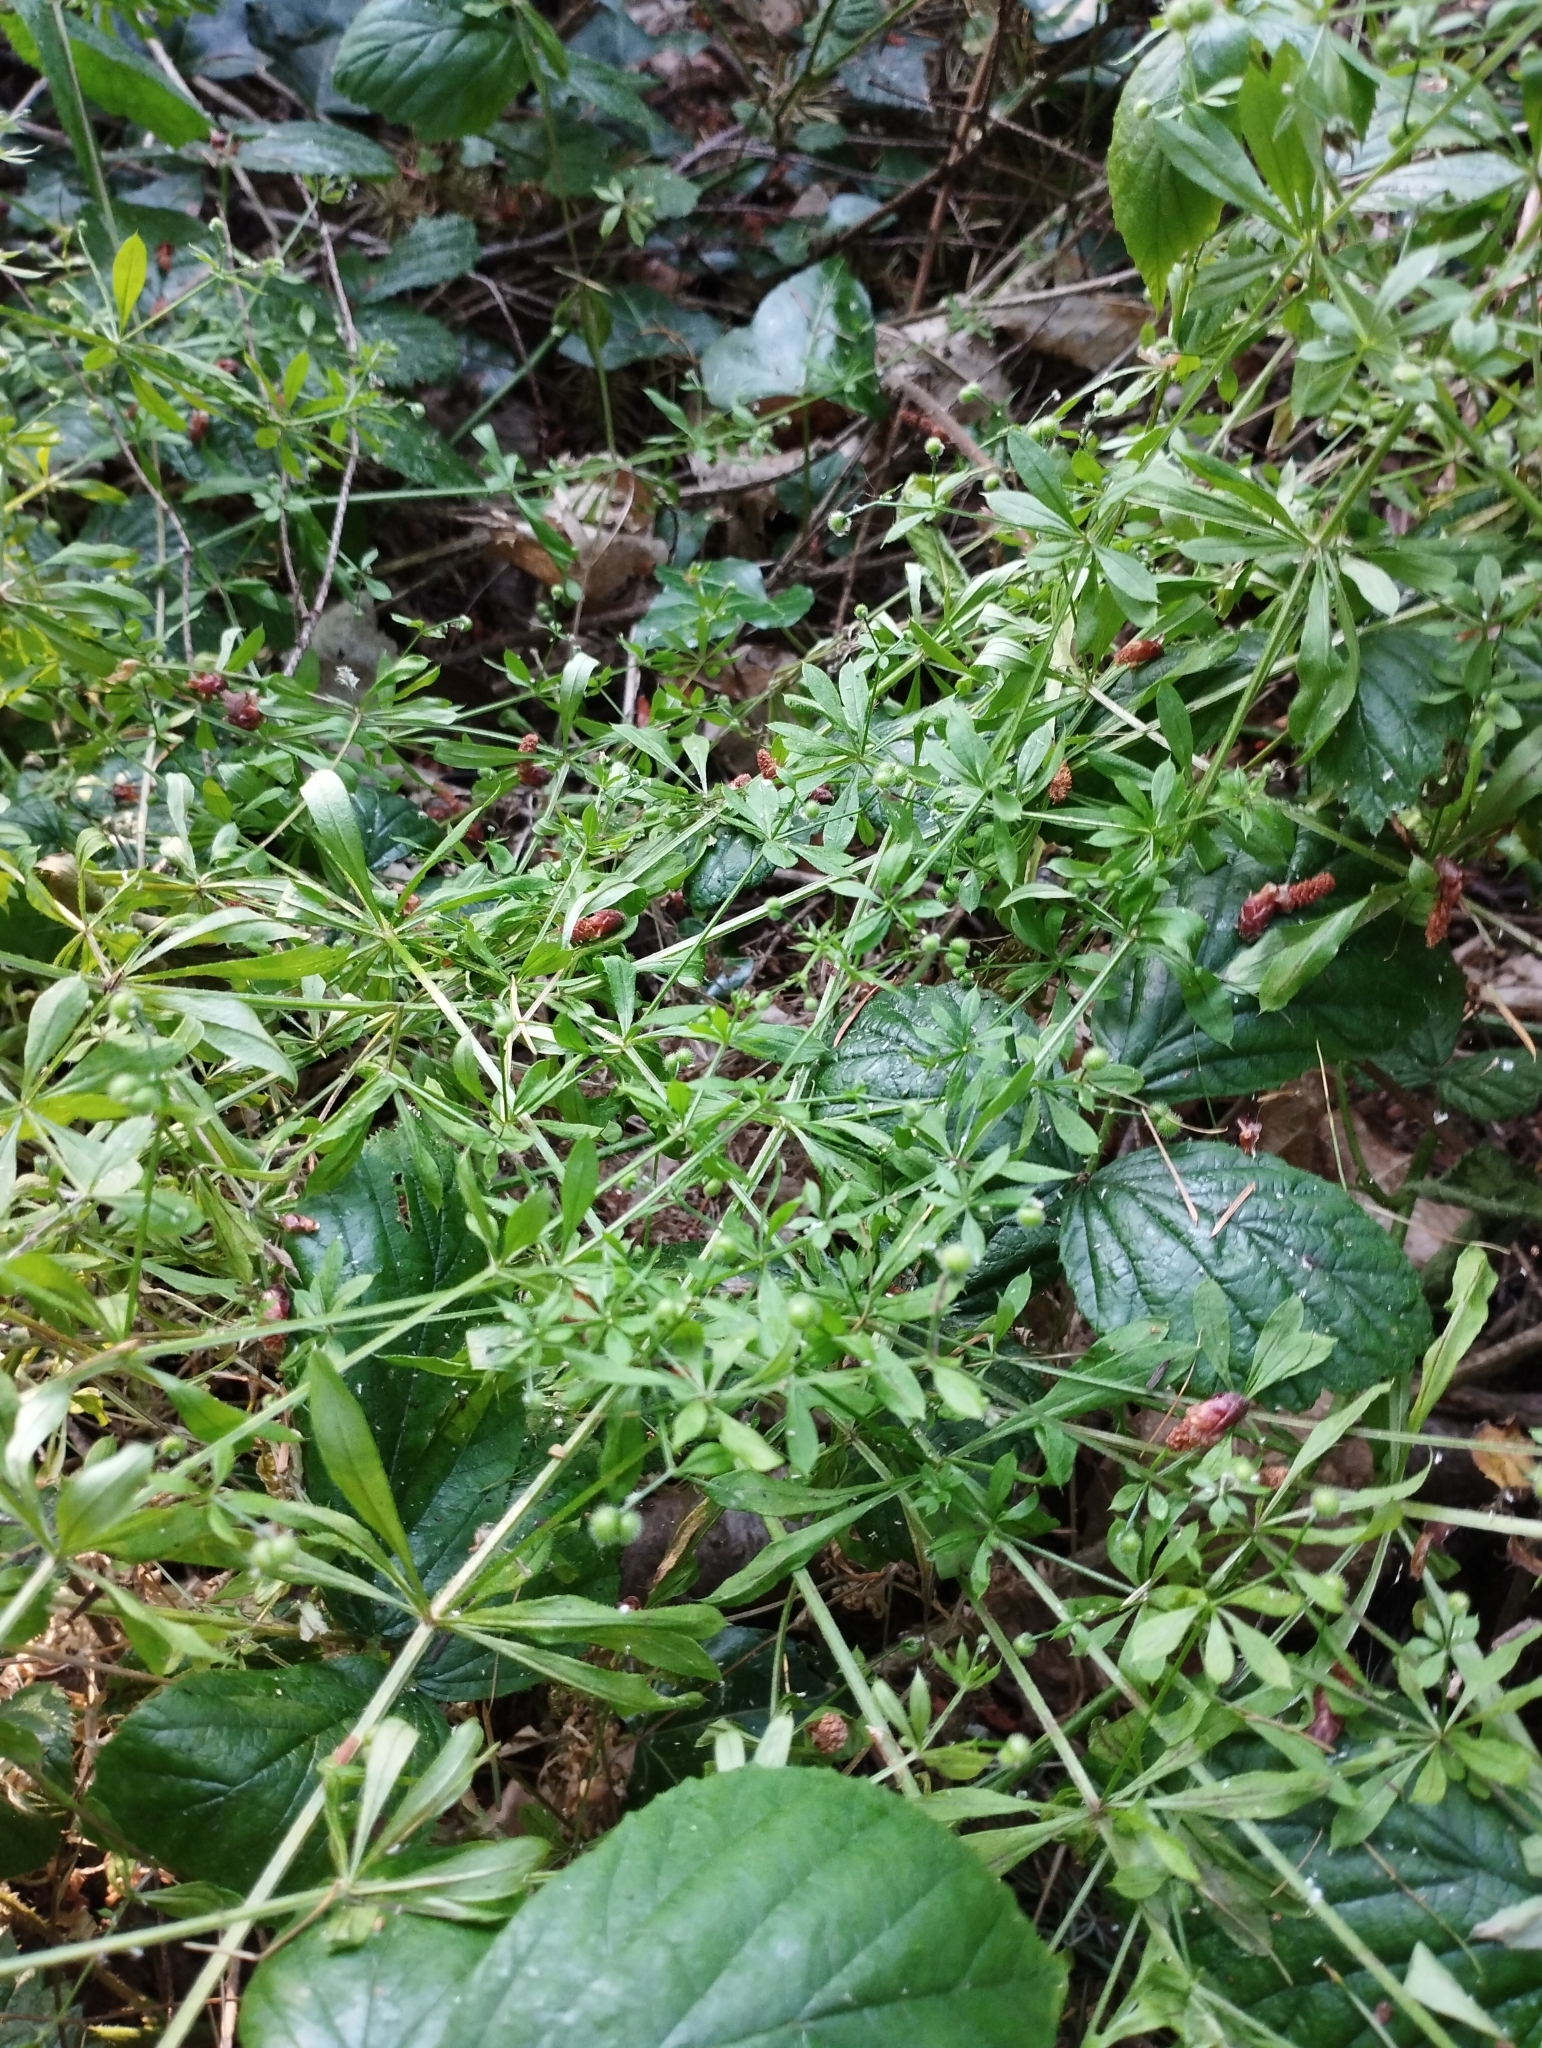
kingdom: Plantae
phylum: Tracheophyta
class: Magnoliopsida
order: Gentianales
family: Rubiaceae
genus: Galium
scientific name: Galium aparine
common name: Cleavers
